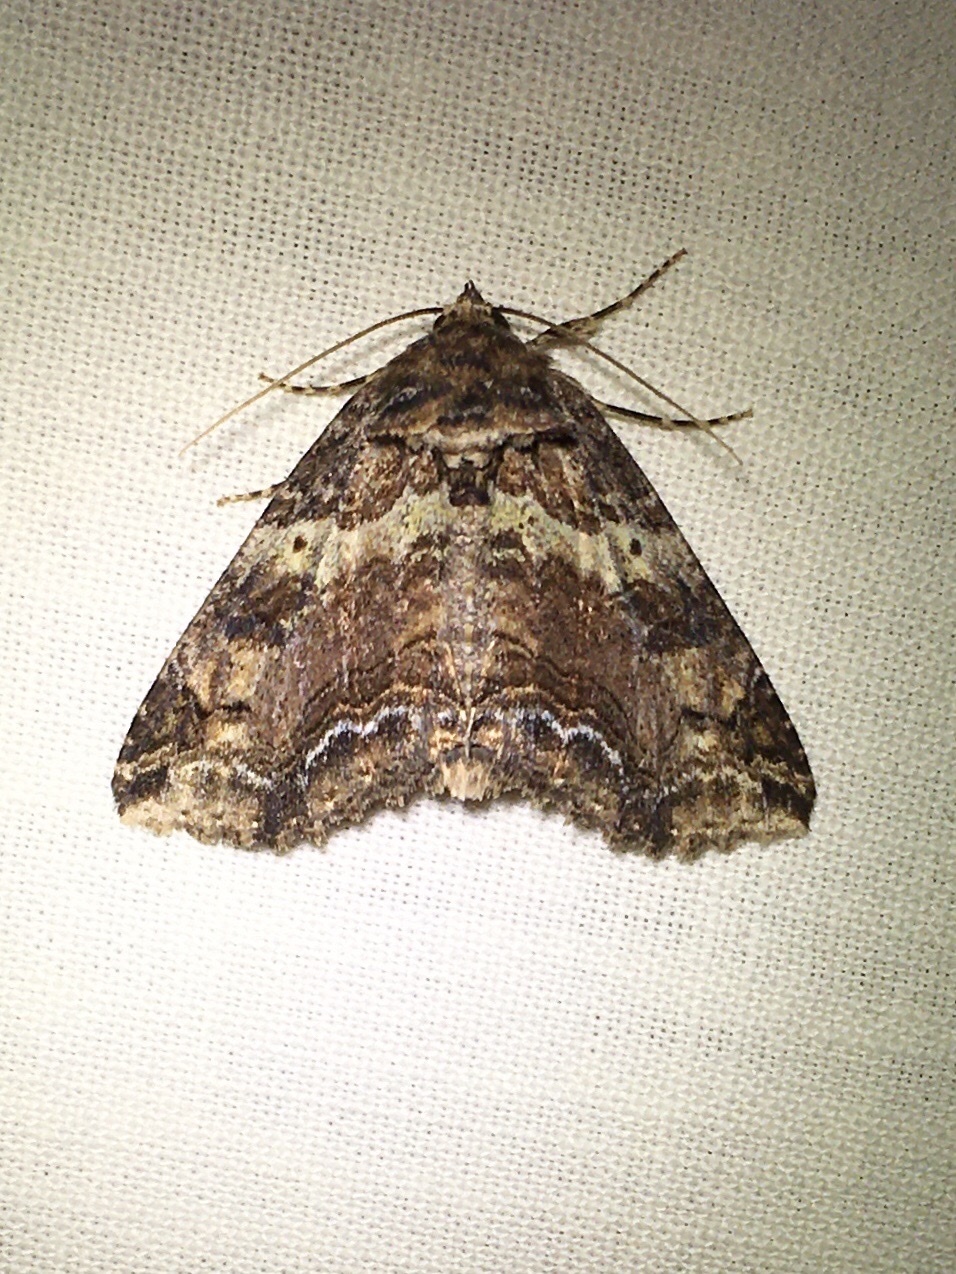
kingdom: Animalia
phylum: Arthropoda
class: Insecta
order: Lepidoptera
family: Erebidae
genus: Zale
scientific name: Zale minerea
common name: Colorful zale moth
